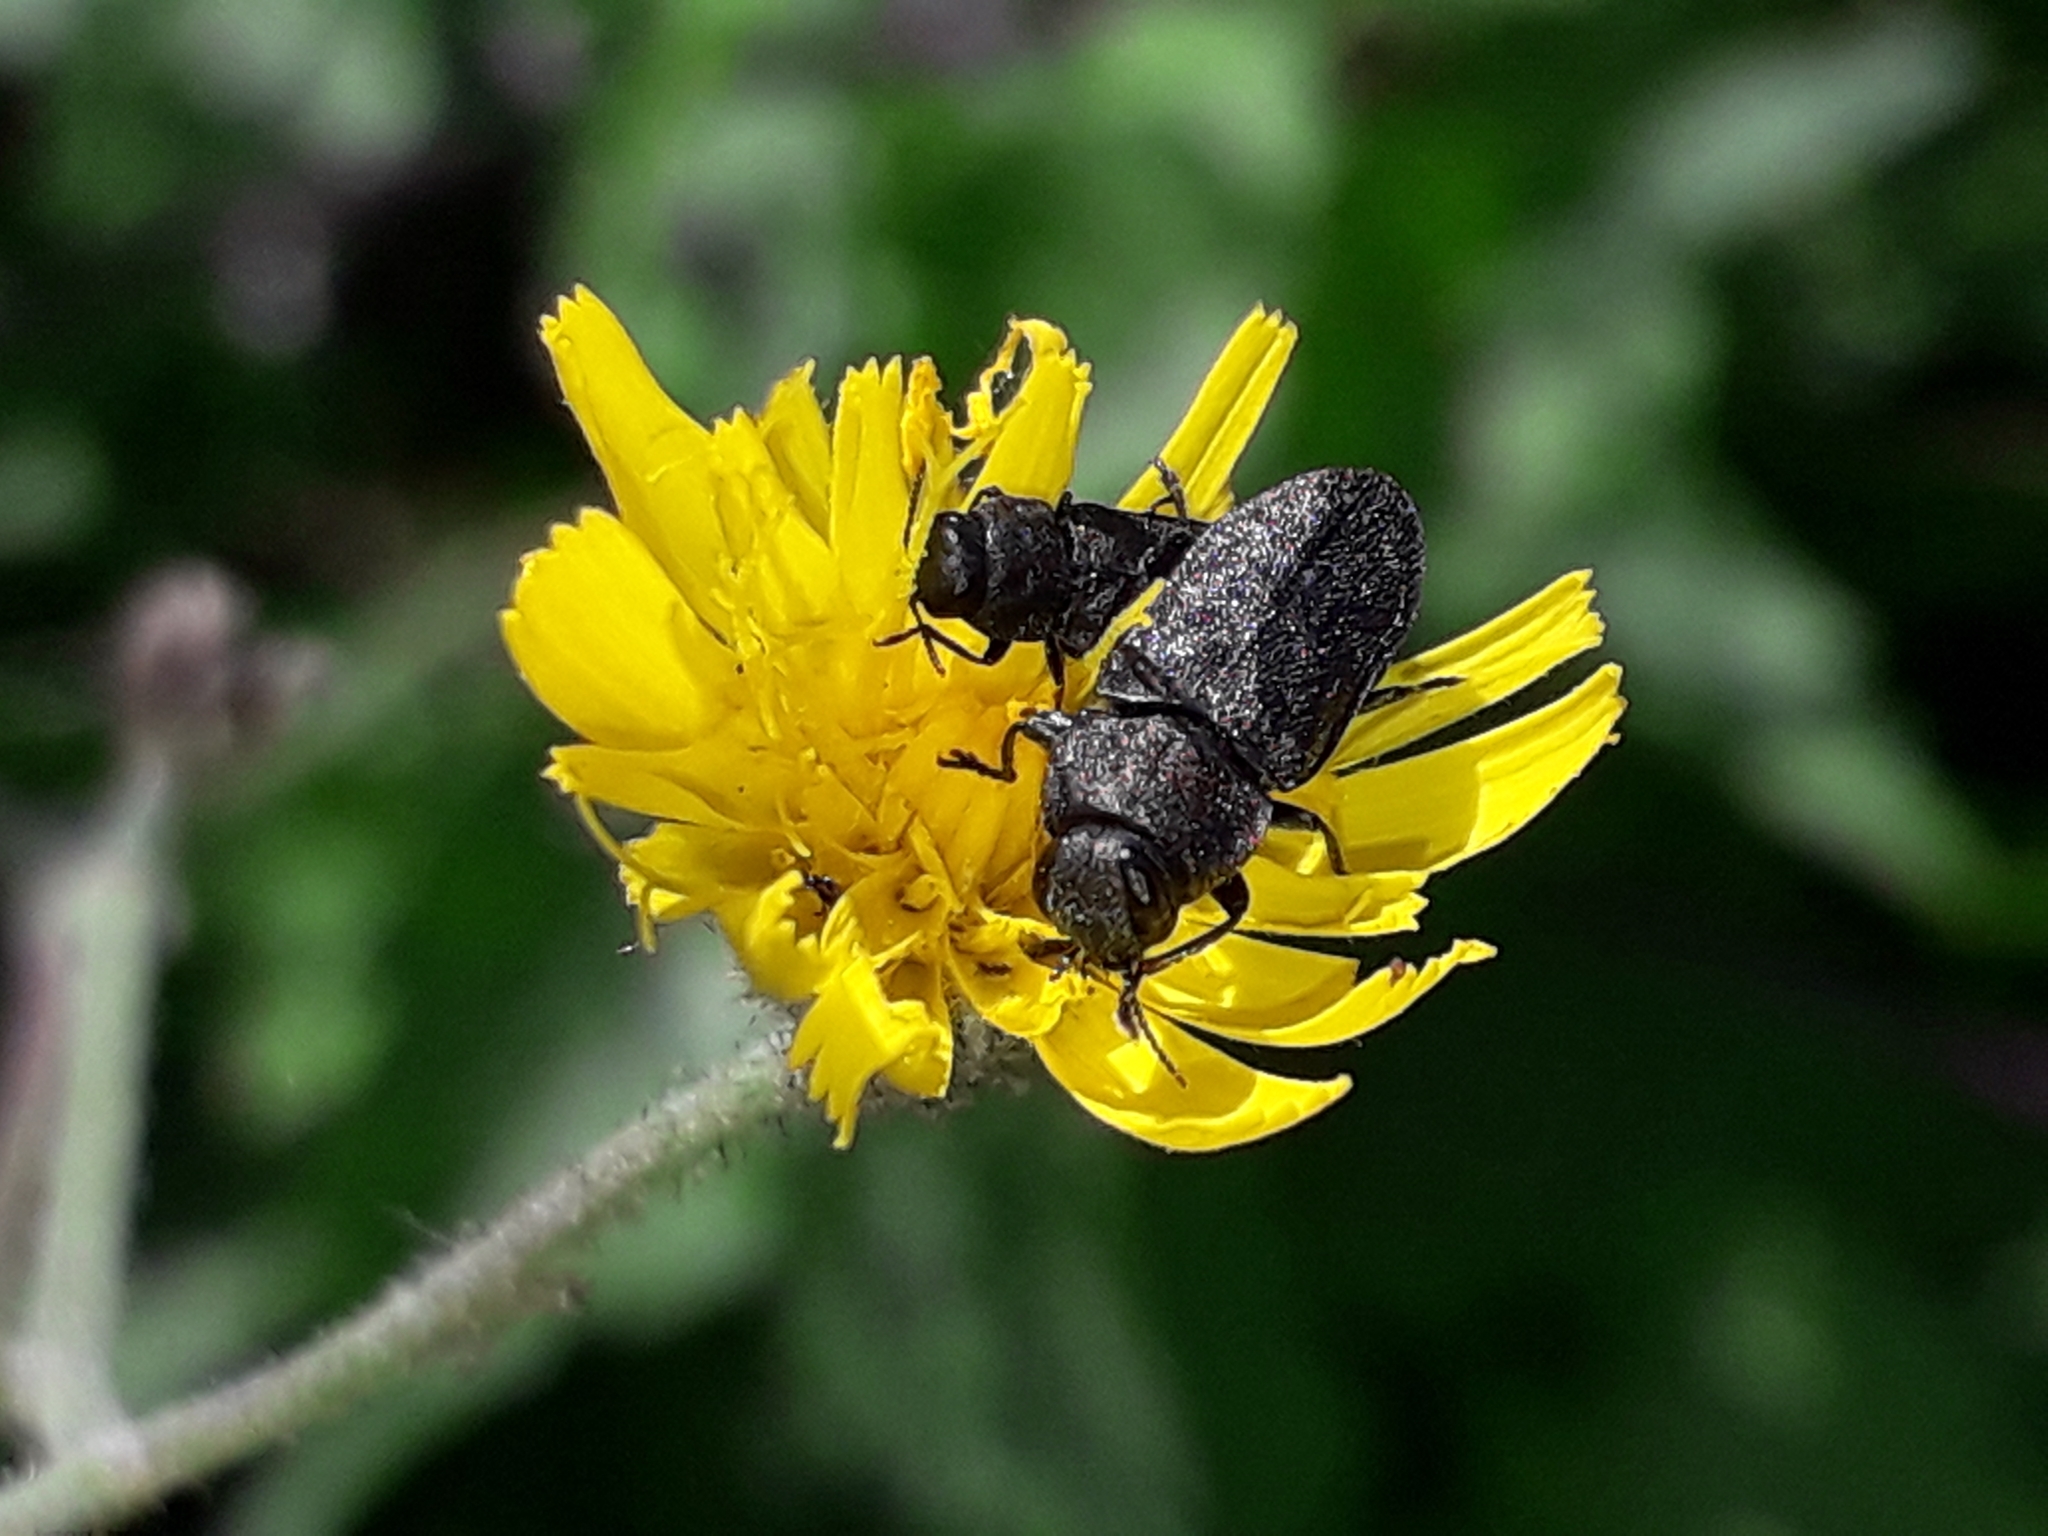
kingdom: Animalia
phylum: Arthropoda
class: Insecta
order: Coleoptera
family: Buprestidae
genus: Anthaxia
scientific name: Anthaxia morio
